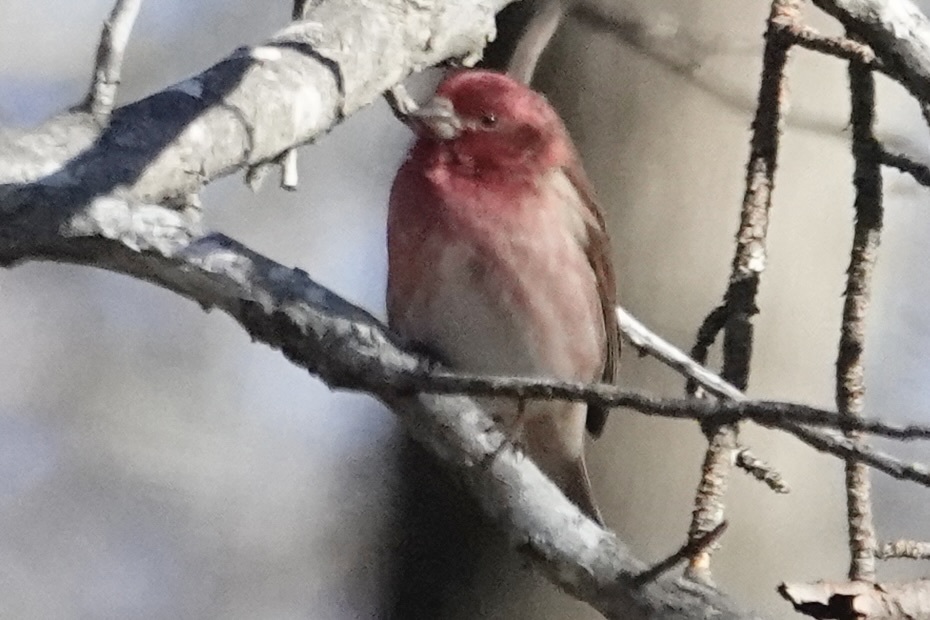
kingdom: Animalia
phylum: Chordata
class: Aves
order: Passeriformes
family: Fringillidae
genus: Haemorhous
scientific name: Haemorhous purpureus
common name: Purple finch
